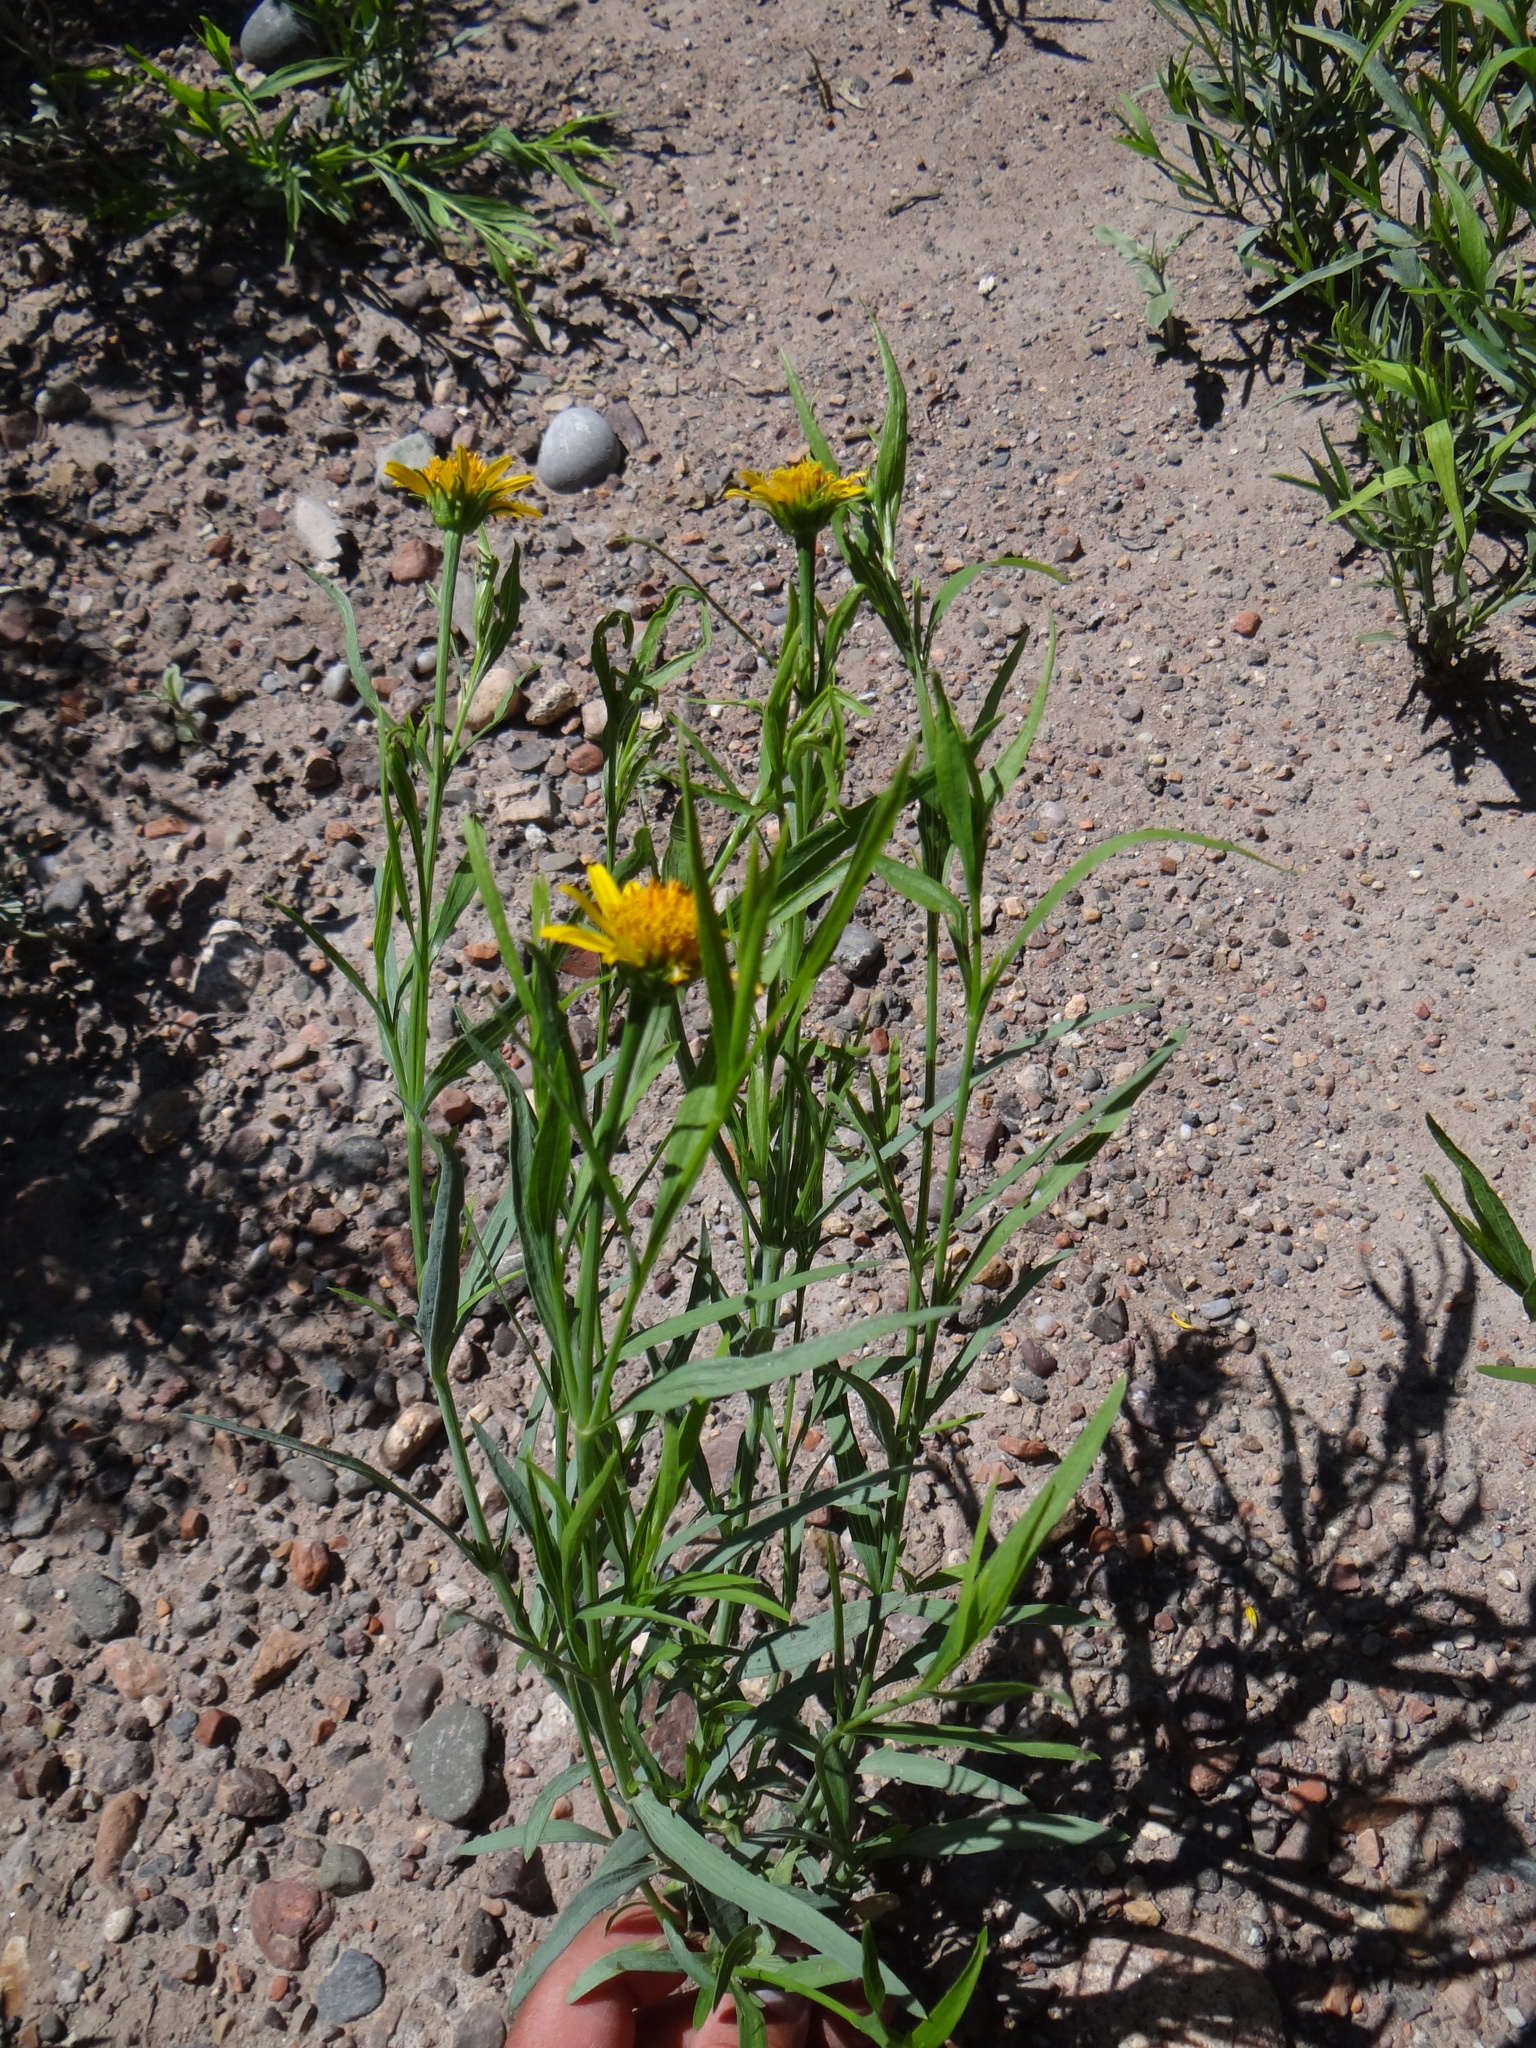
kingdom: Plantae
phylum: Tracheophyta
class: Magnoliopsida
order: Asterales
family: Asteraceae
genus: Pascalia
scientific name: Pascalia glauca
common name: Beach creeping oxeye
